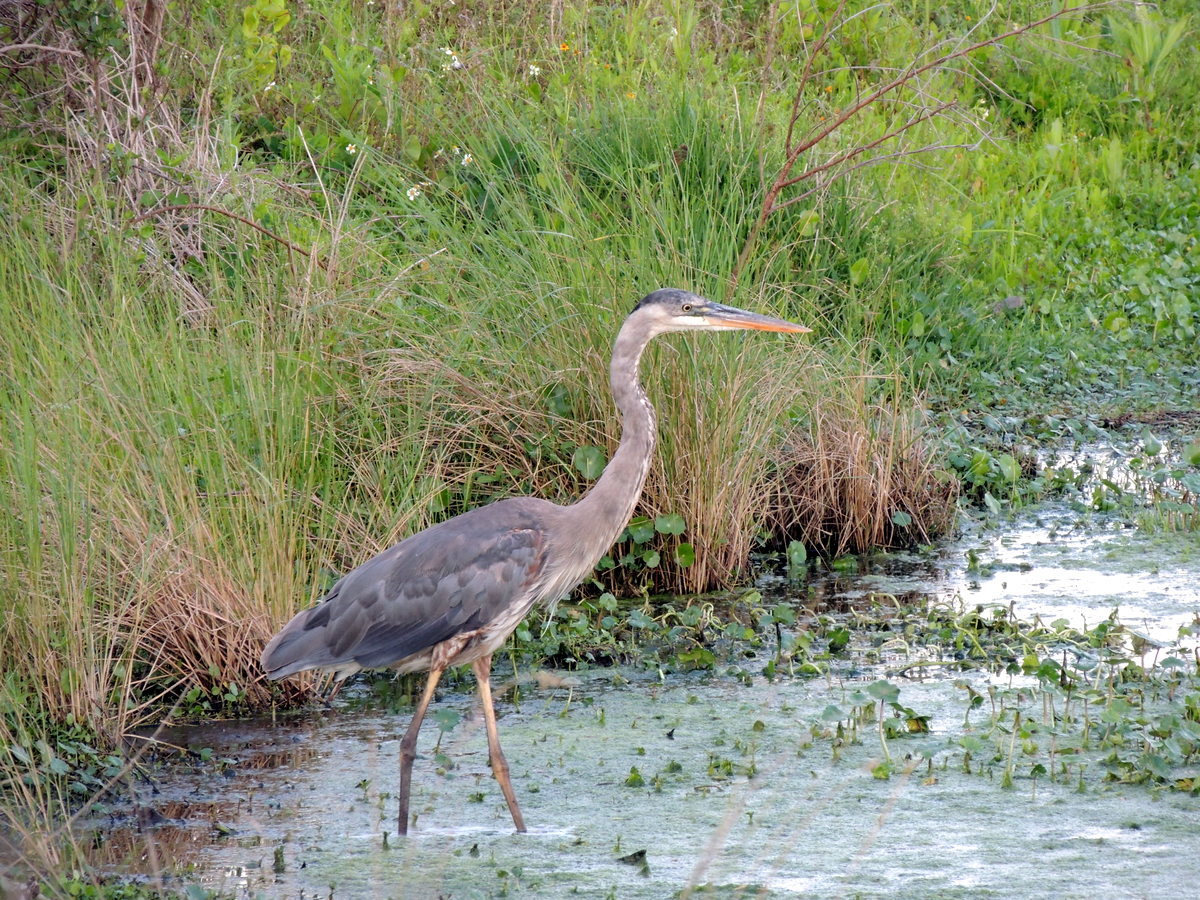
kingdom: Animalia
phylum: Chordata
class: Aves
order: Pelecaniformes
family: Ardeidae
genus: Ardea
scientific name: Ardea herodias
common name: Great blue heron
